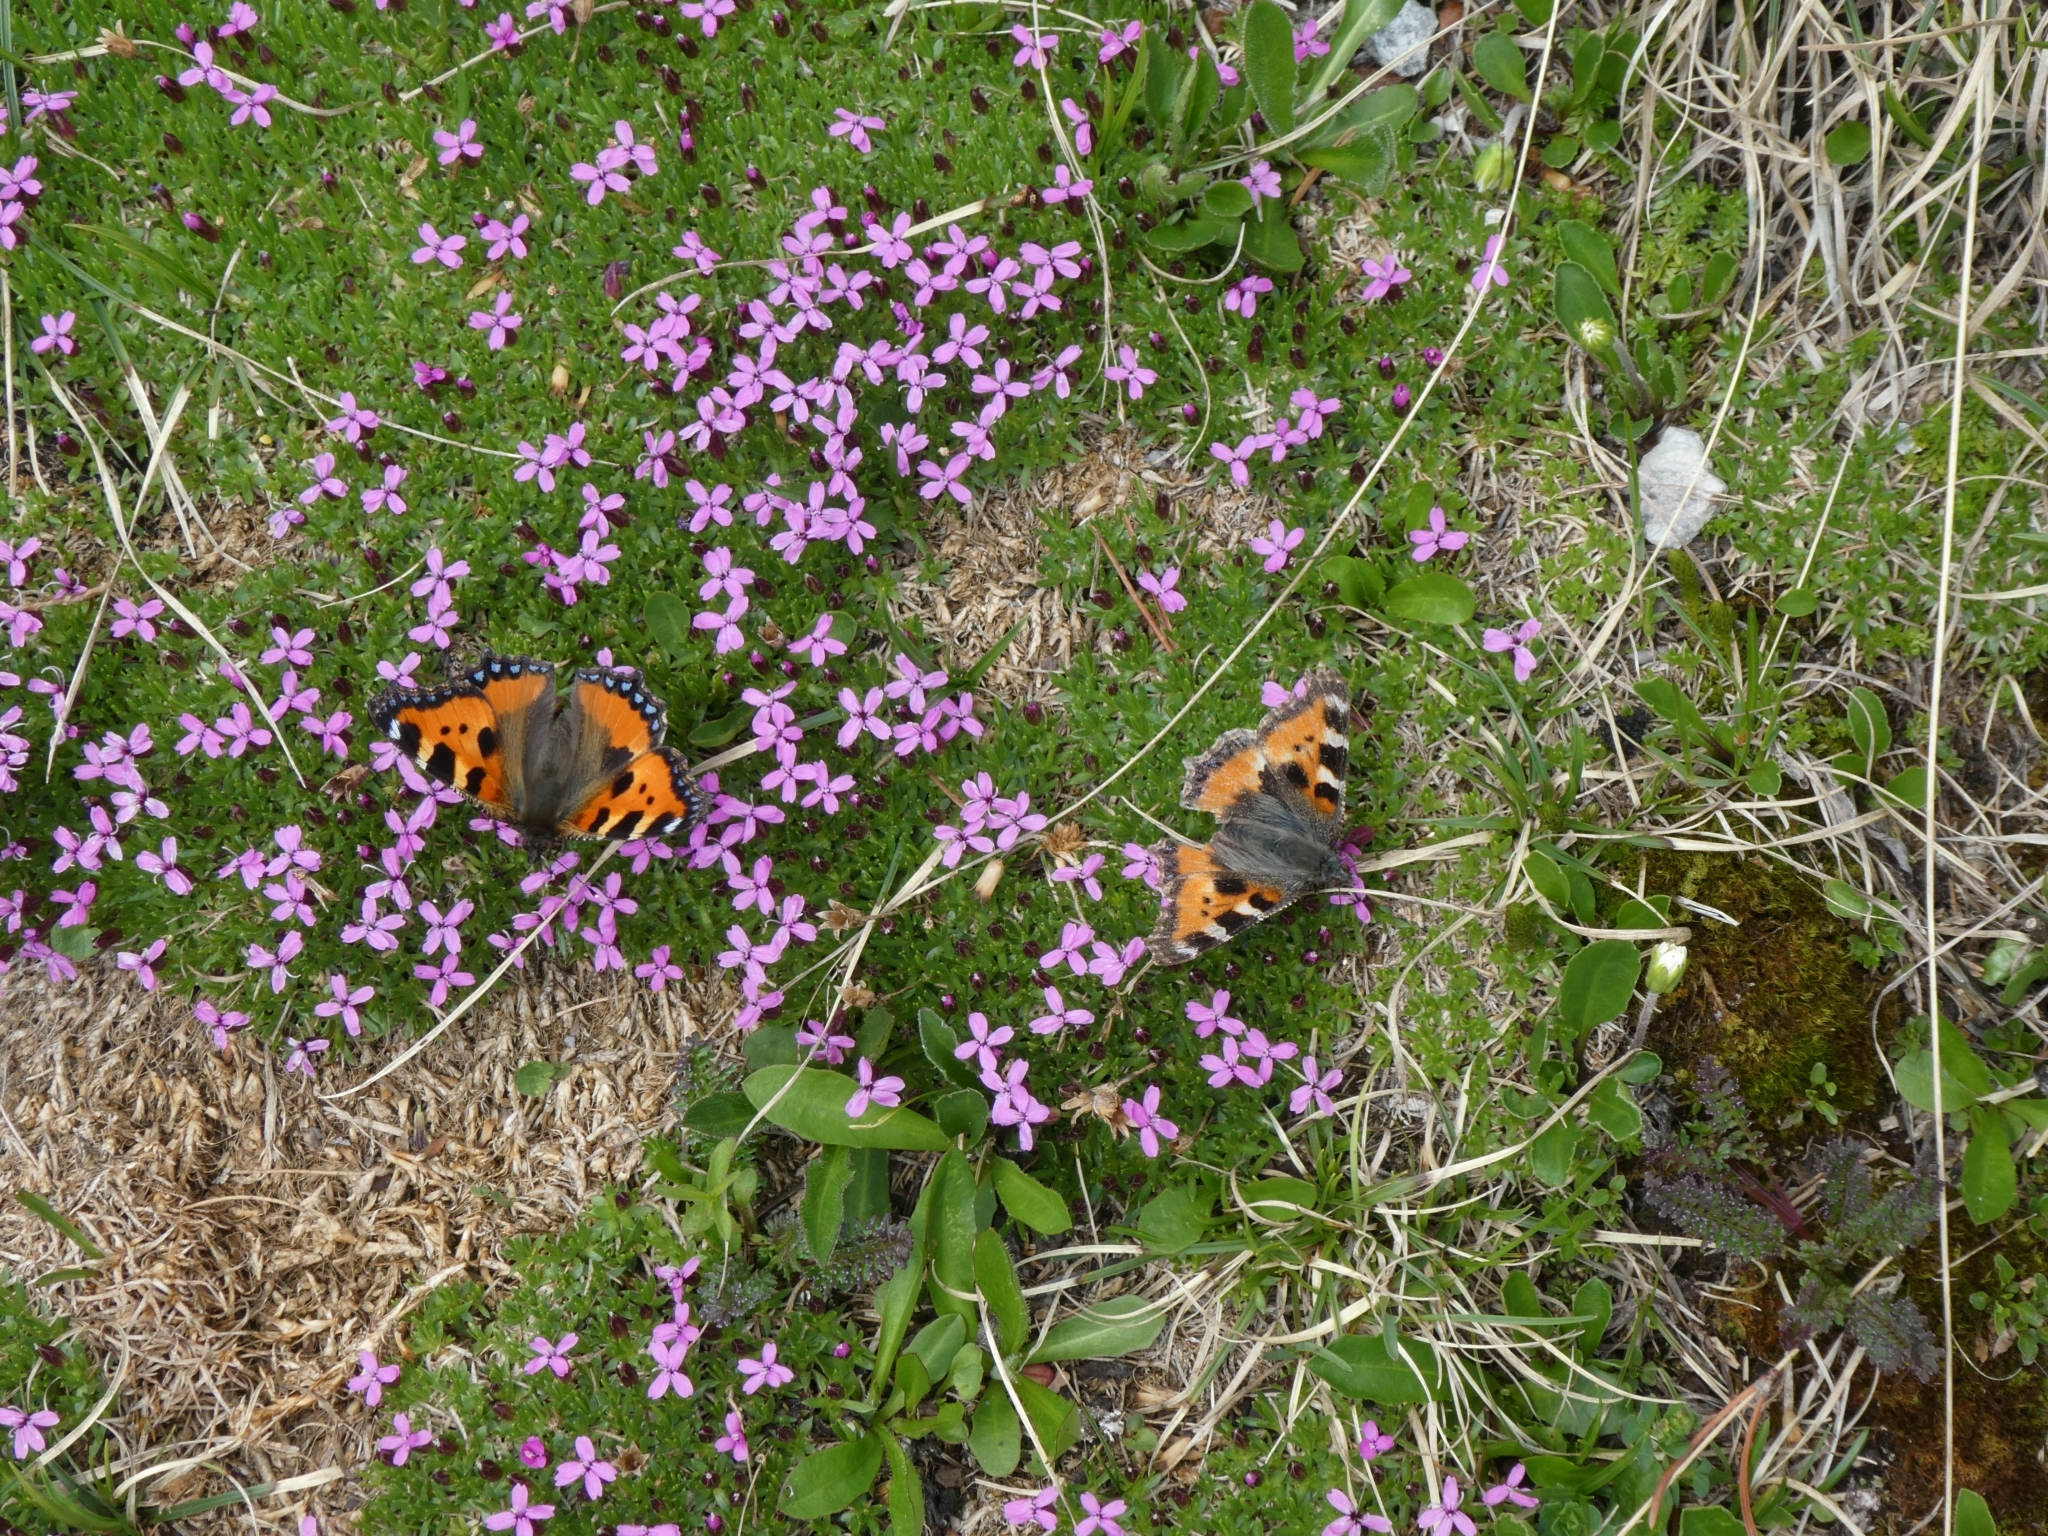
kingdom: Animalia
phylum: Arthropoda
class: Insecta
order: Lepidoptera
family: Nymphalidae
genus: Aglais
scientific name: Aglais urticae
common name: Small tortoiseshell
